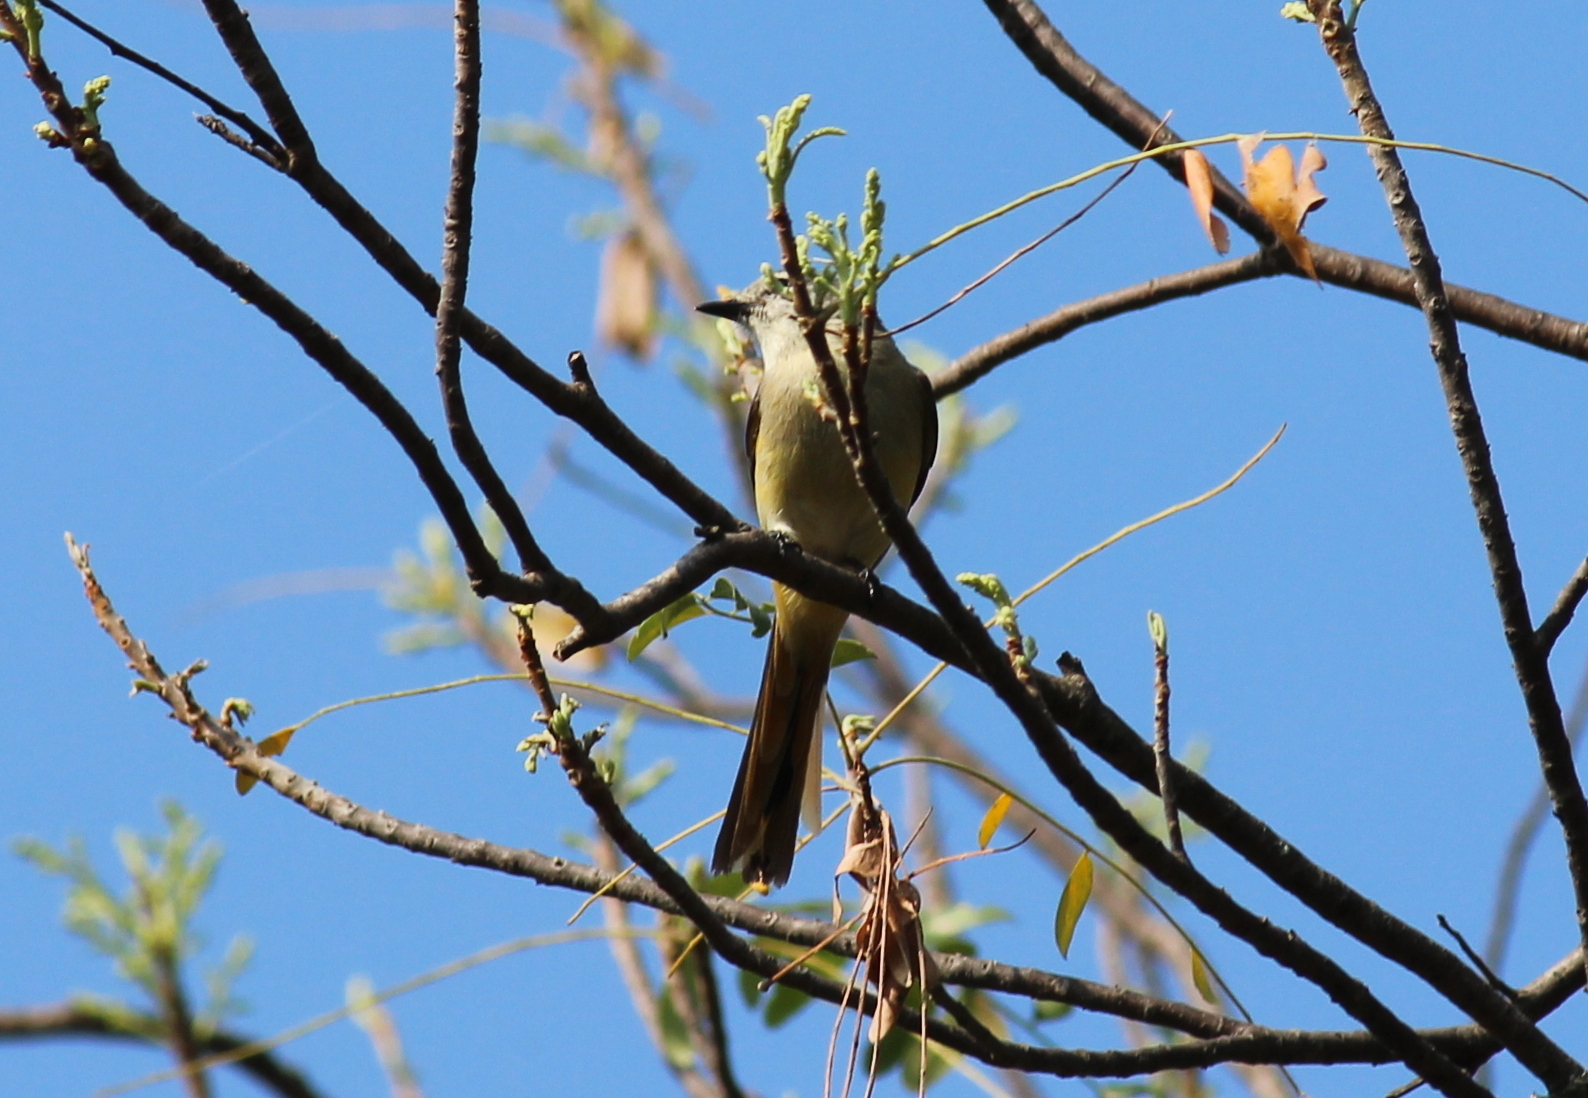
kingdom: Animalia
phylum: Chordata
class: Aves
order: Passeriformes
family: Campephagidae
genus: Pericrocotus
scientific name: Pericrocotus cinnamomeus
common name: Small minivet
